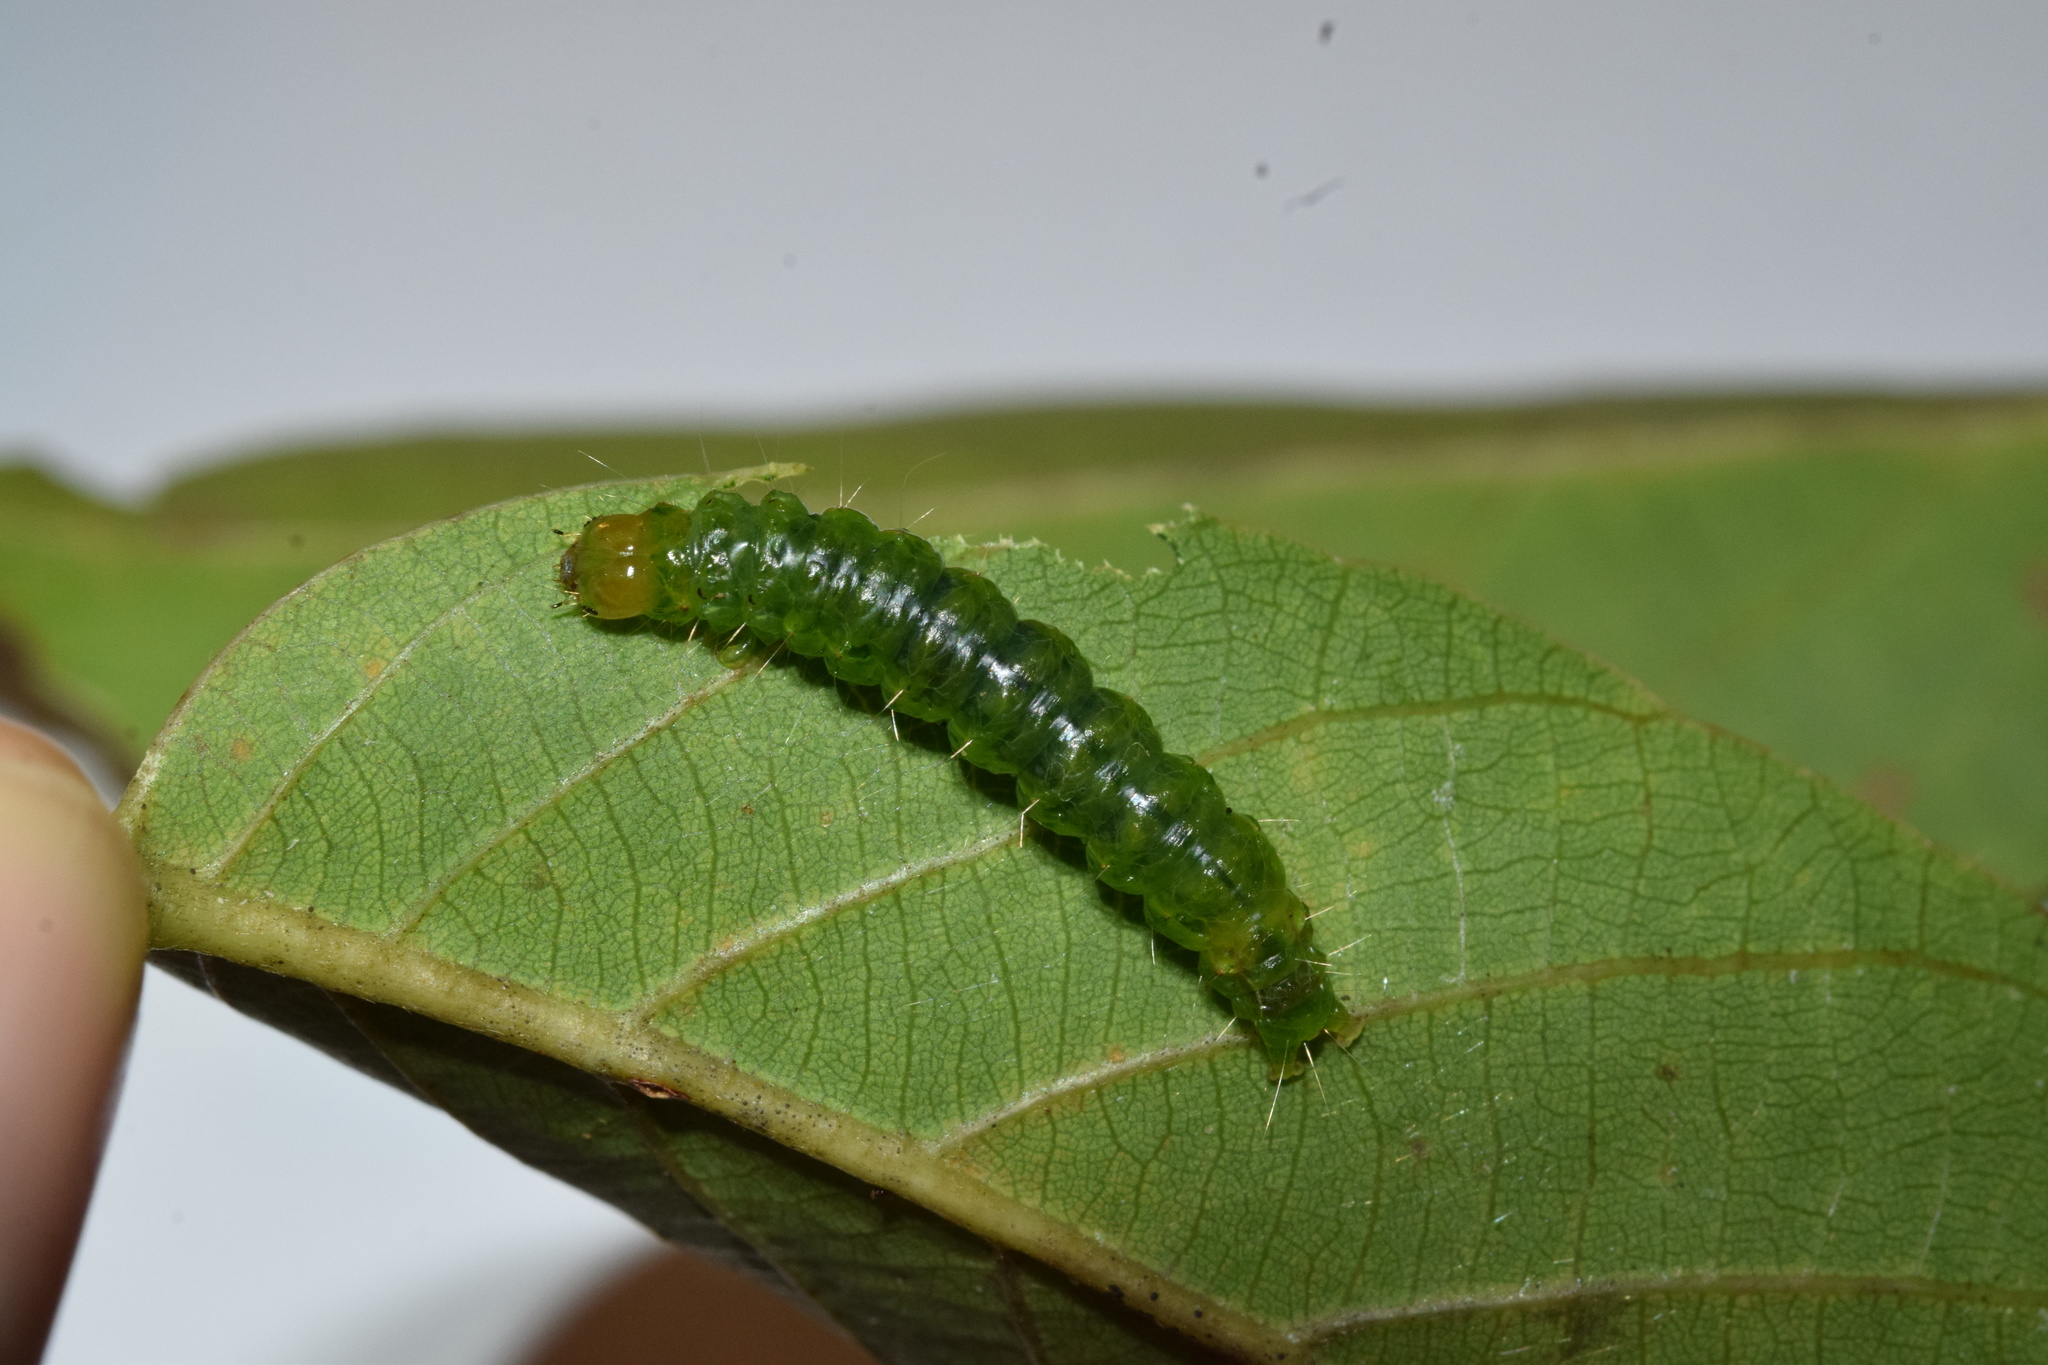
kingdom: Animalia
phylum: Arthropoda
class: Insecta
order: Lepidoptera
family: Crambidae
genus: Ulopeza
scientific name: Ulopeza conigeralis
